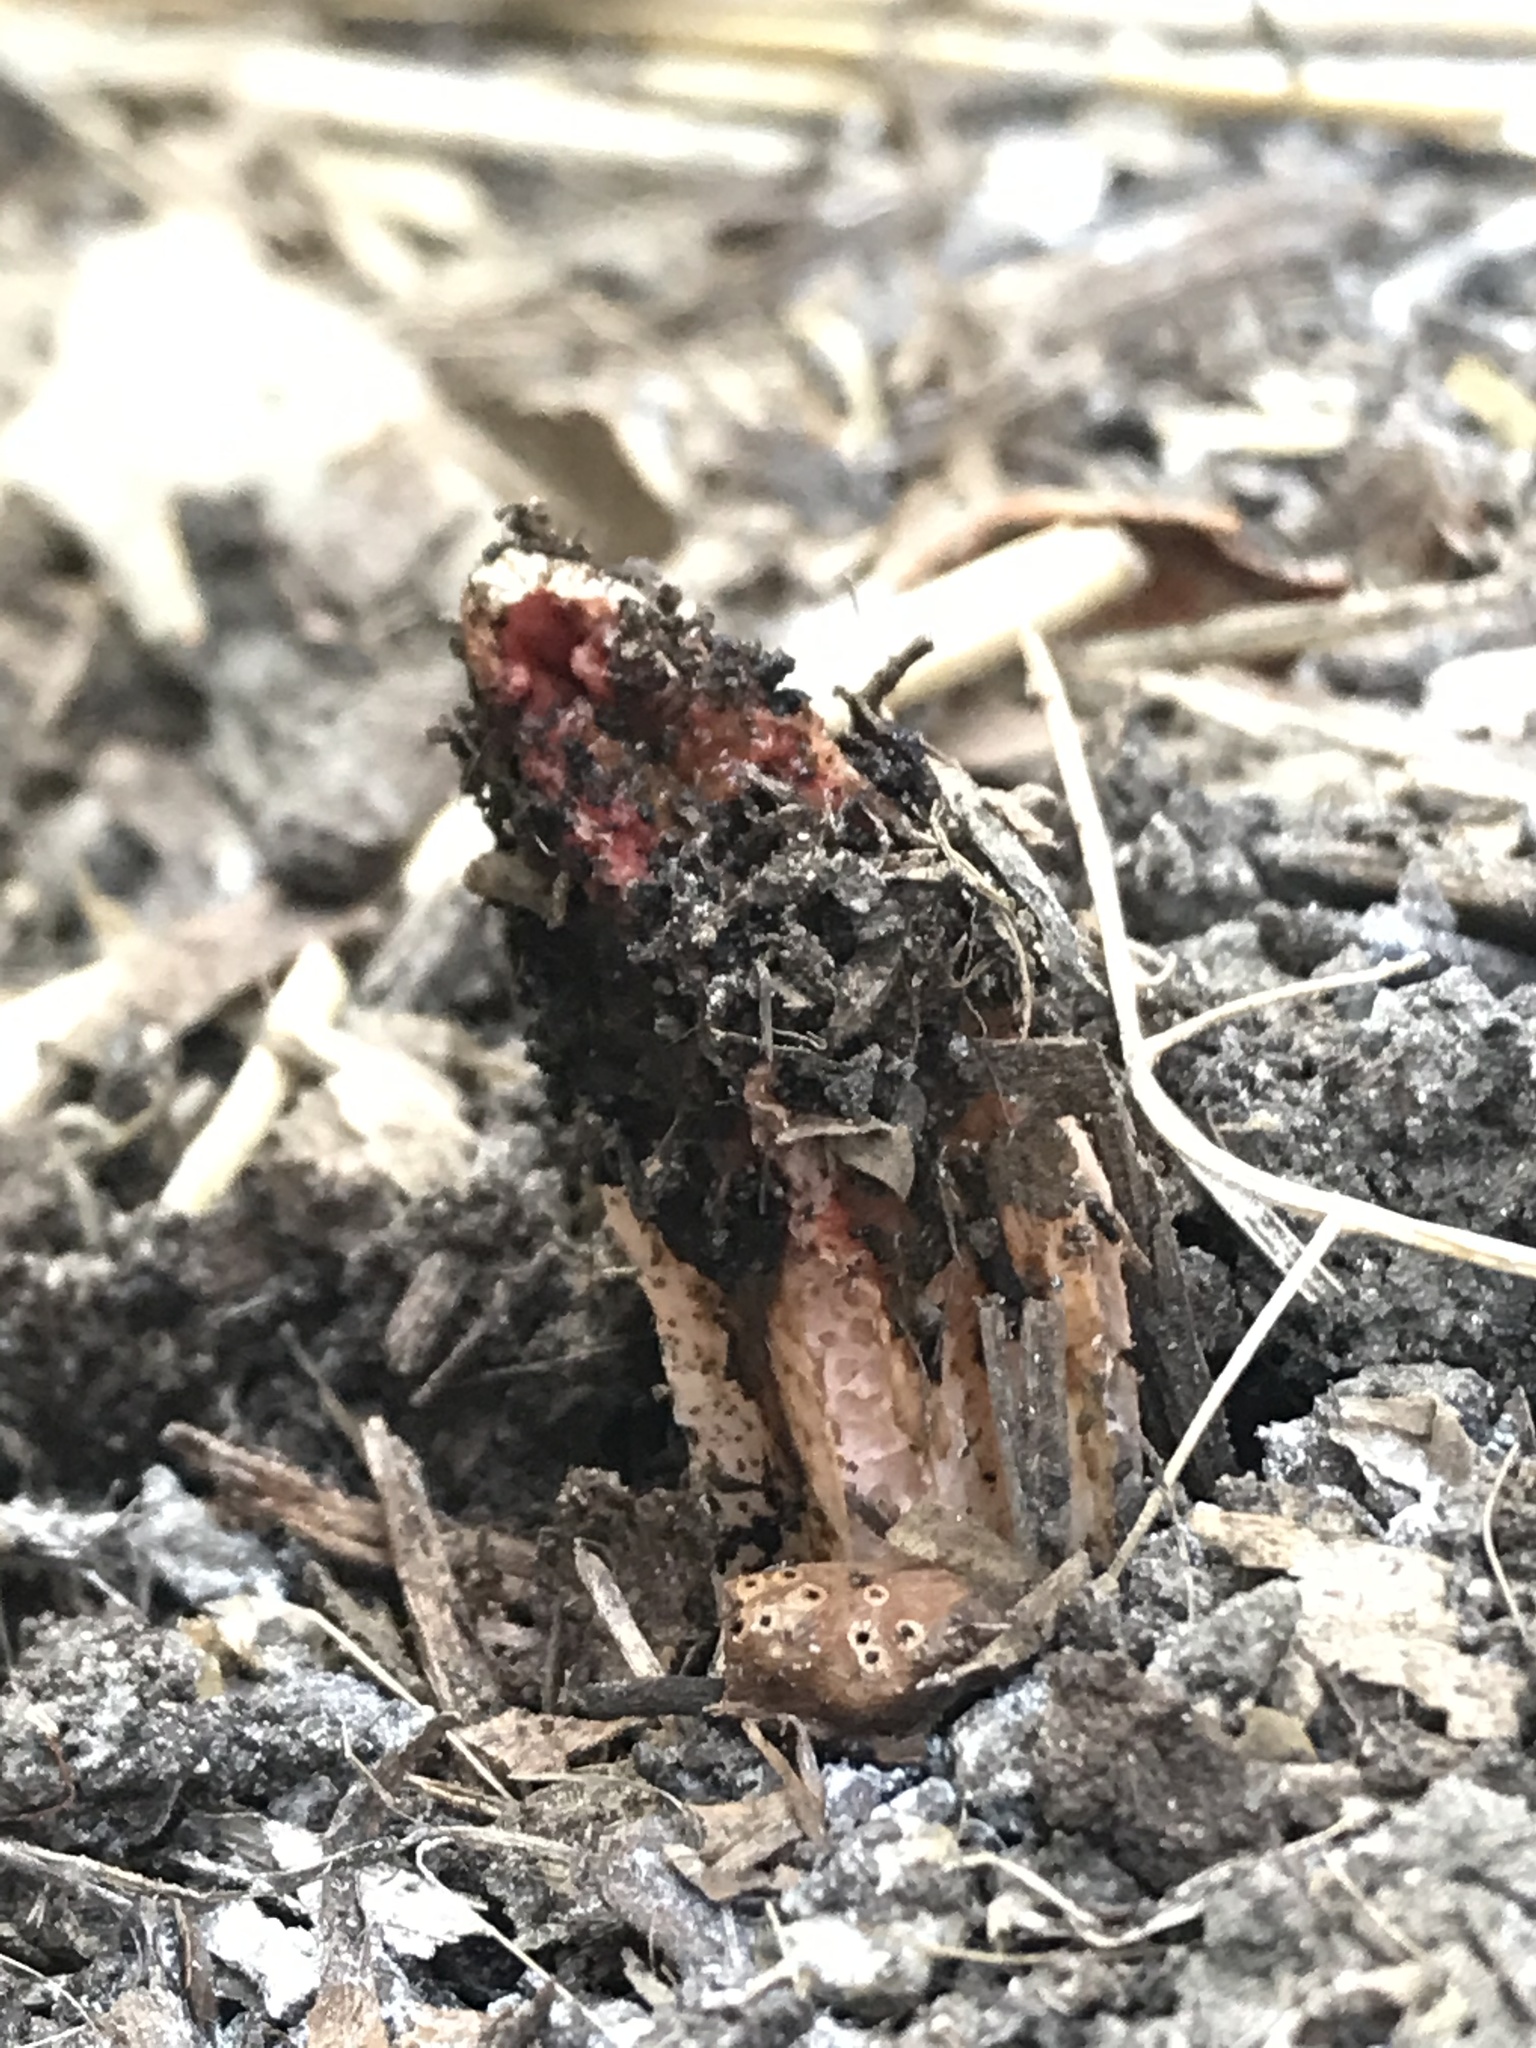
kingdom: Fungi
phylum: Basidiomycota
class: Agaricomycetes
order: Phallales
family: Phallaceae
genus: Lysurus
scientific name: Lysurus mokusin
